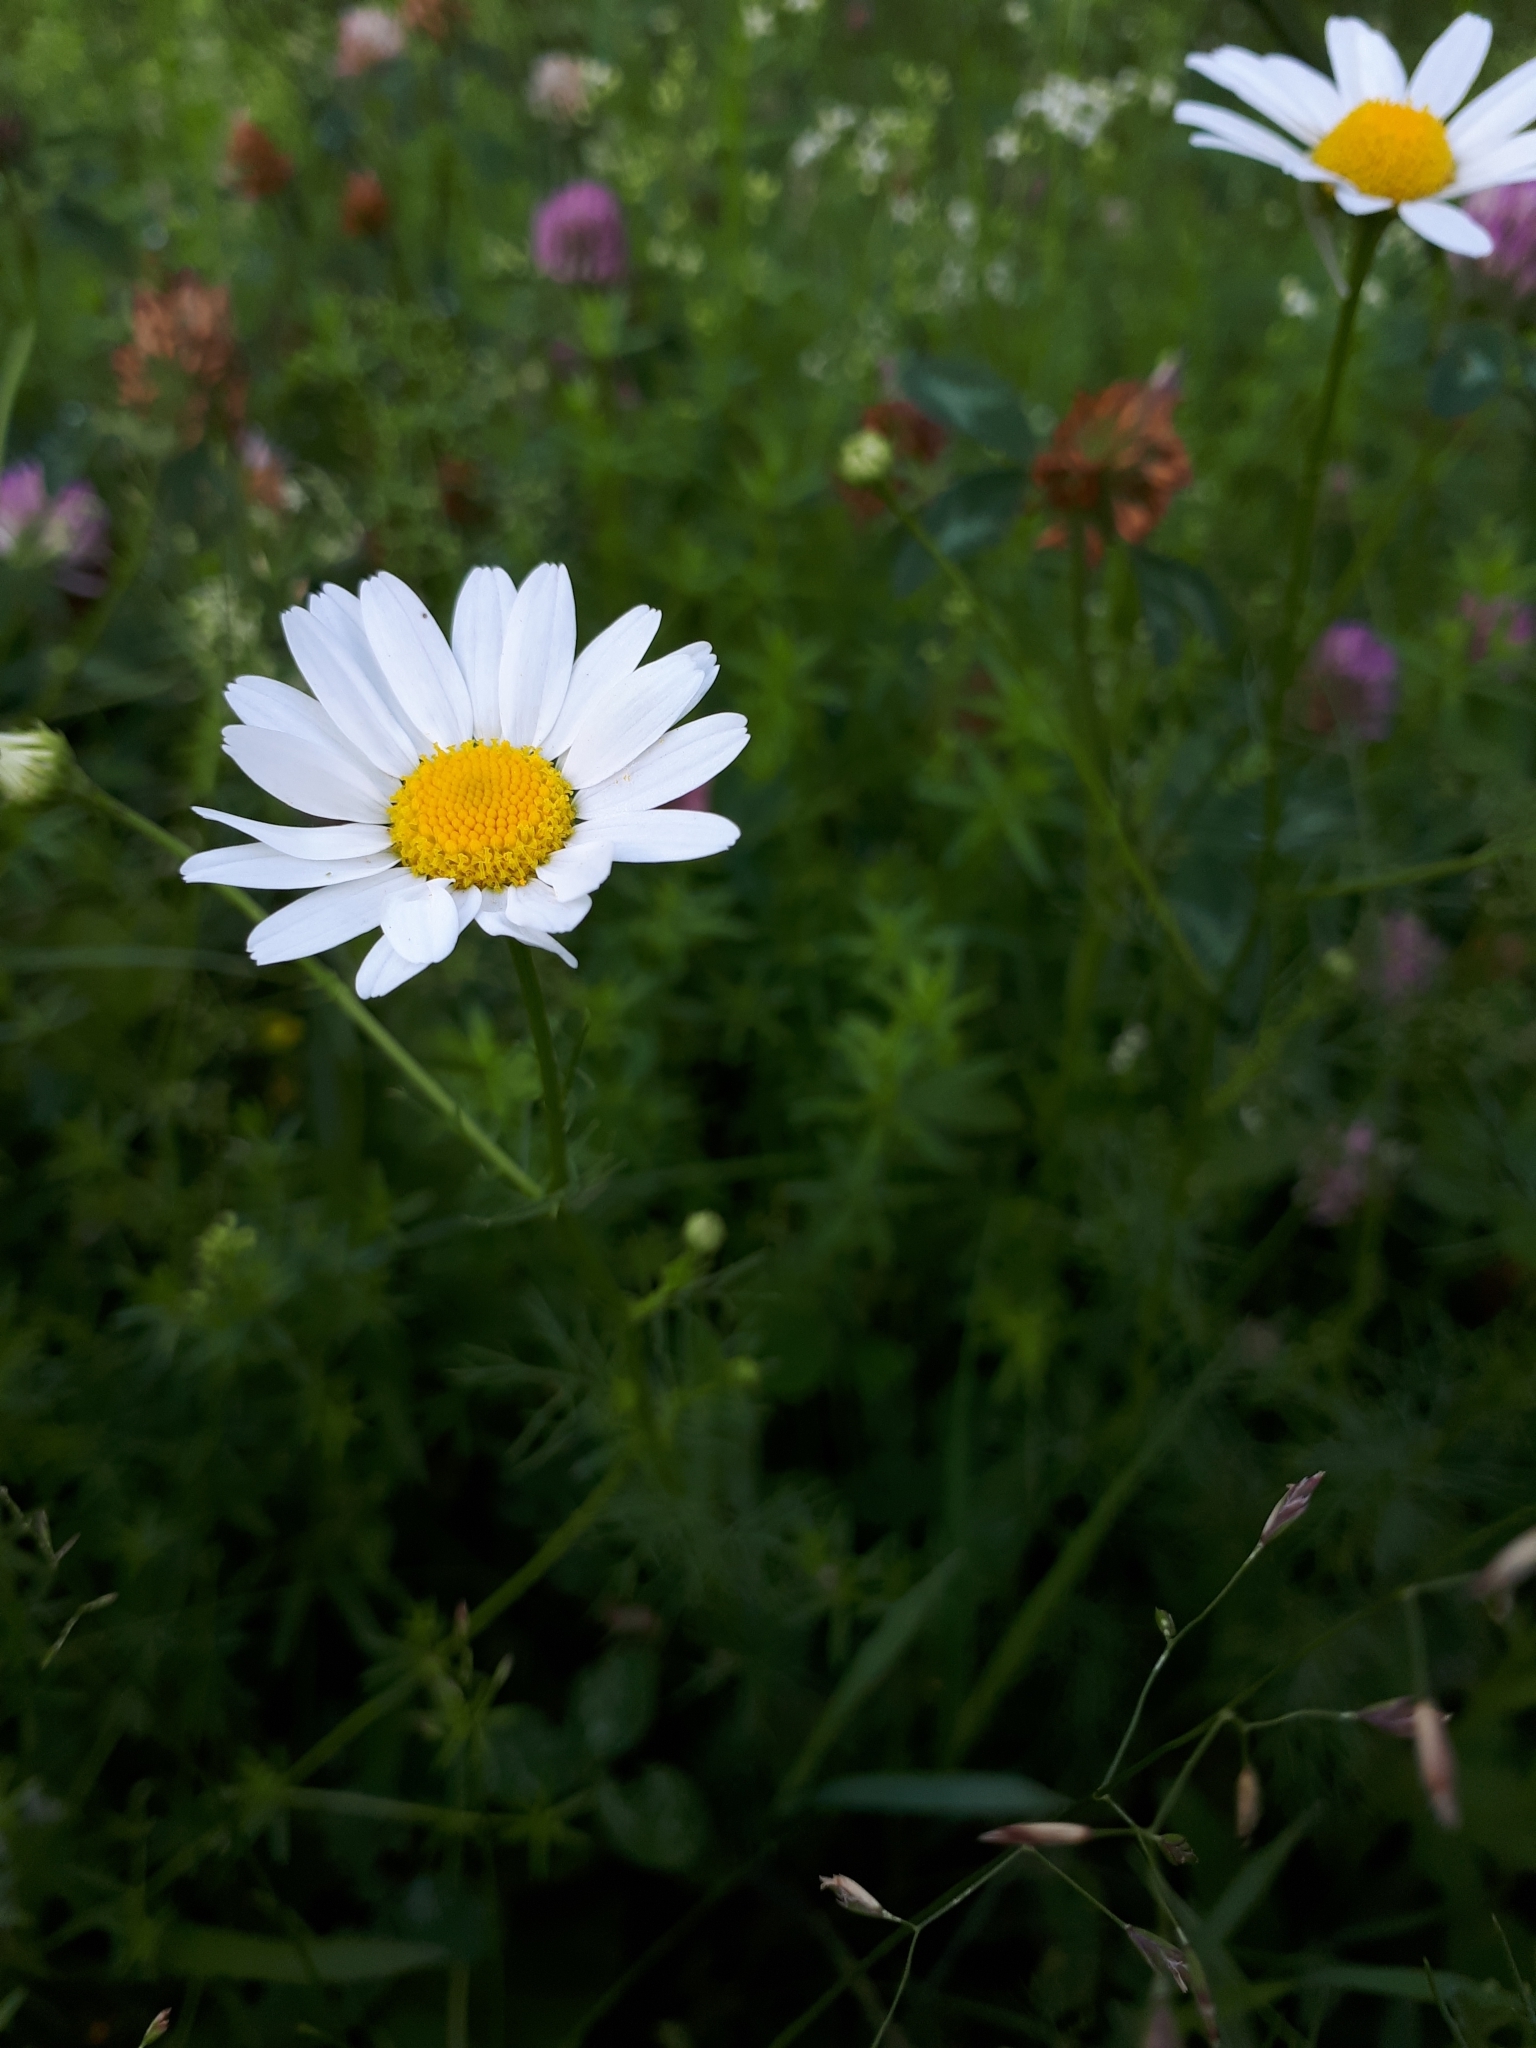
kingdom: Plantae
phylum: Tracheophyta
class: Magnoliopsida
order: Asterales
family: Asteraceae
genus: Tripleurospermum
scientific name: Tripleurospermum inodorum
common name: Scentless mayweed
